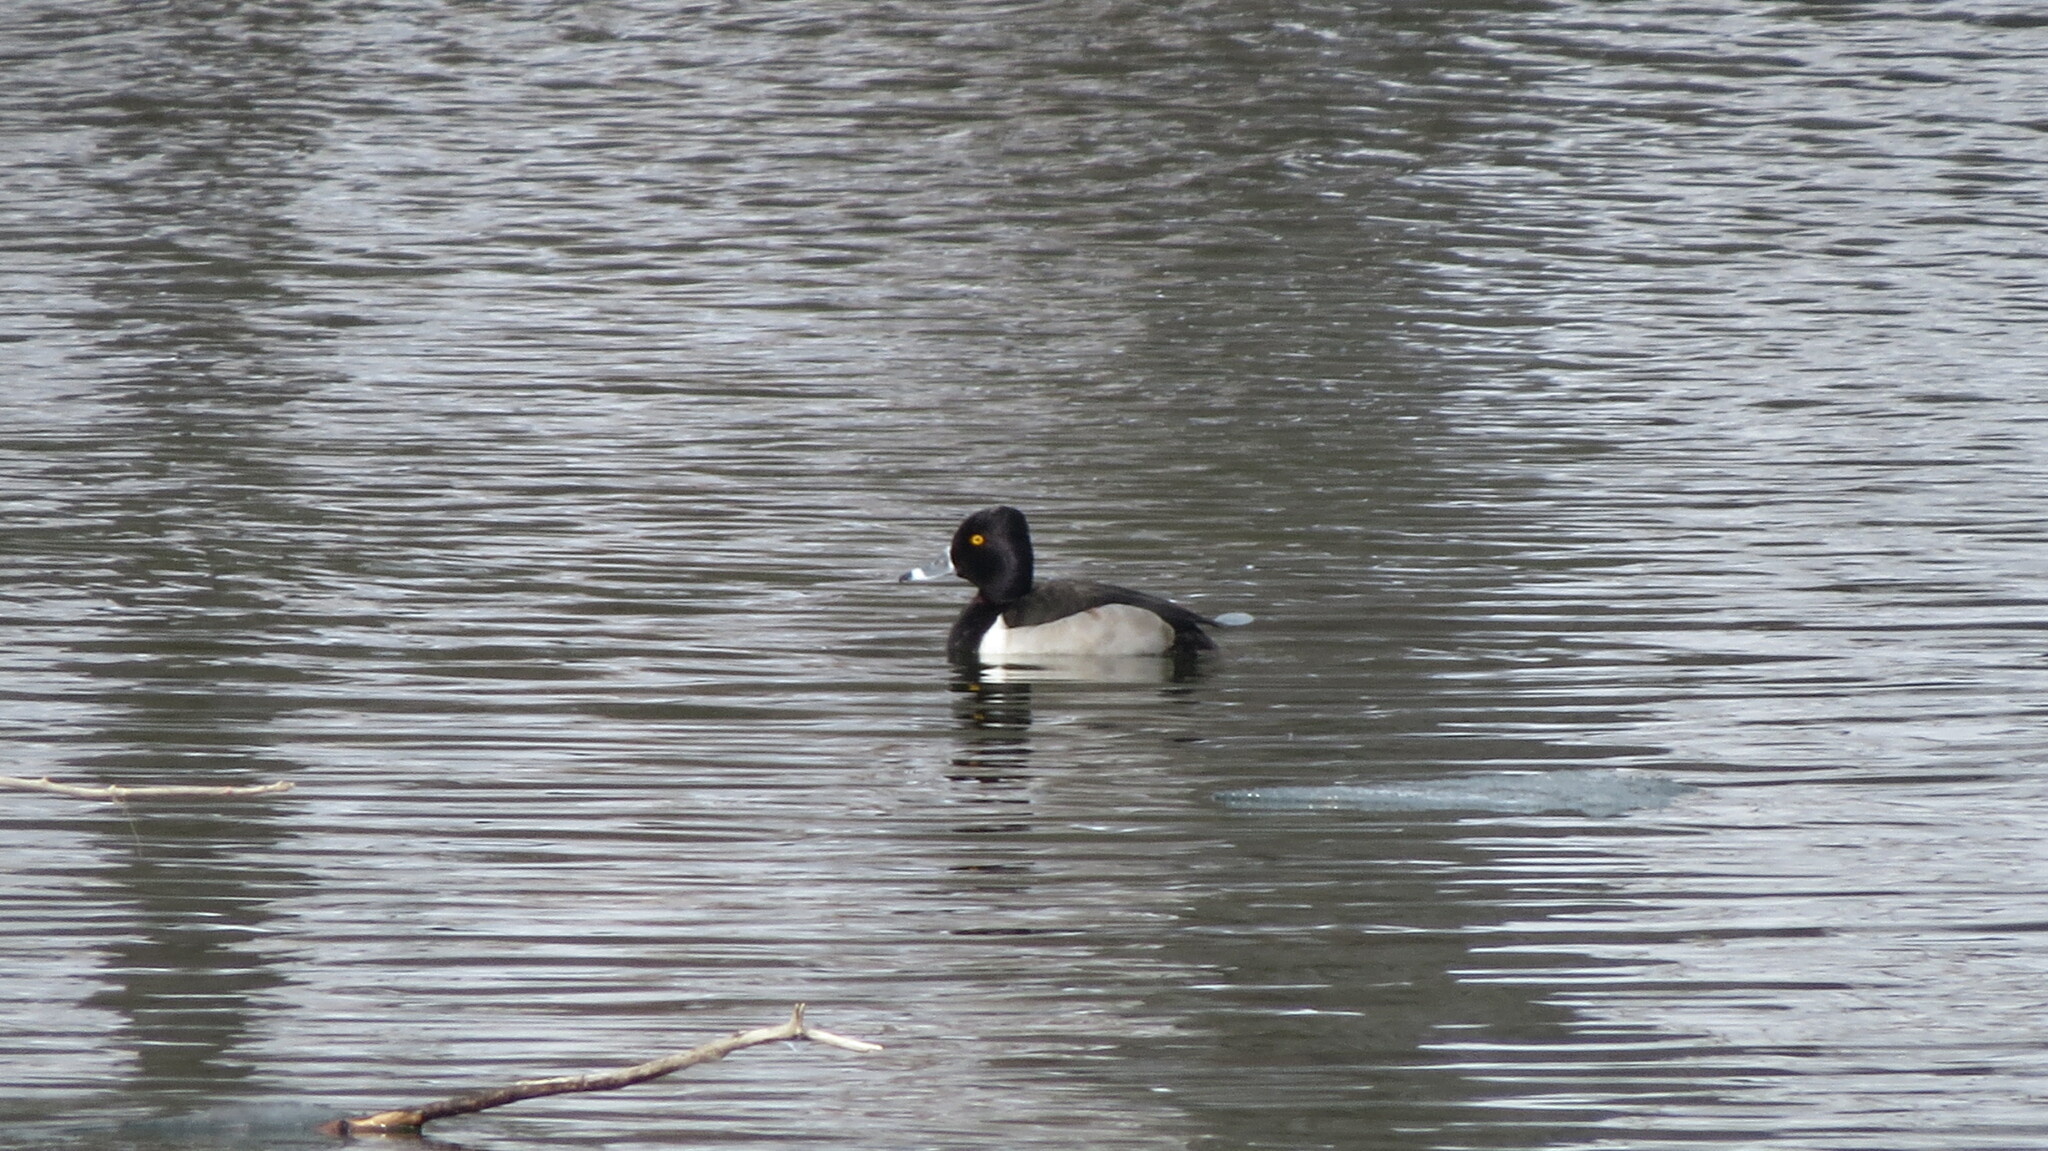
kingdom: Animalia
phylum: Chordata
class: Aves
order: Anseriformes
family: Anatidae
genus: Aythya
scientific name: Aythya collaris
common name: Ring-necked duck
